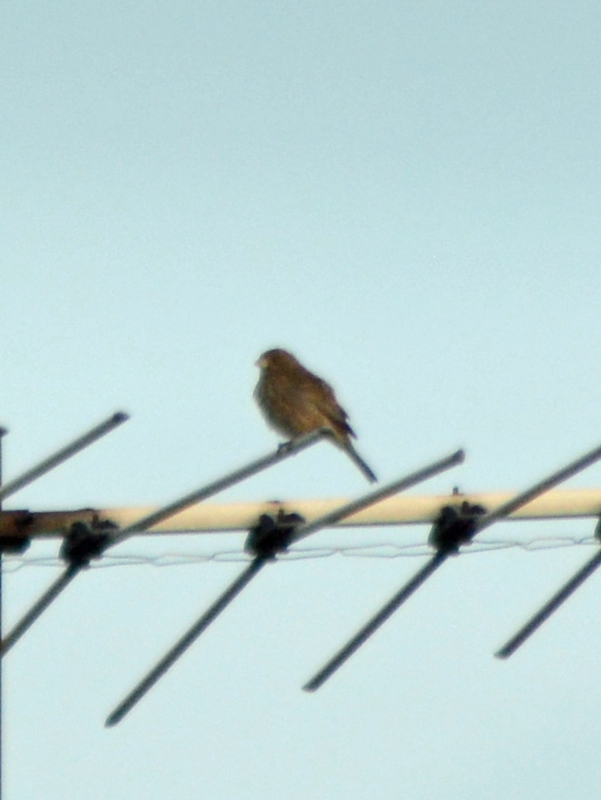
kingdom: Animalia
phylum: Chordata
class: Aves
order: Passeriformes
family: Fringillidae
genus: Haemorhous
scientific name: Haemorhous mexicanus
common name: House finch
